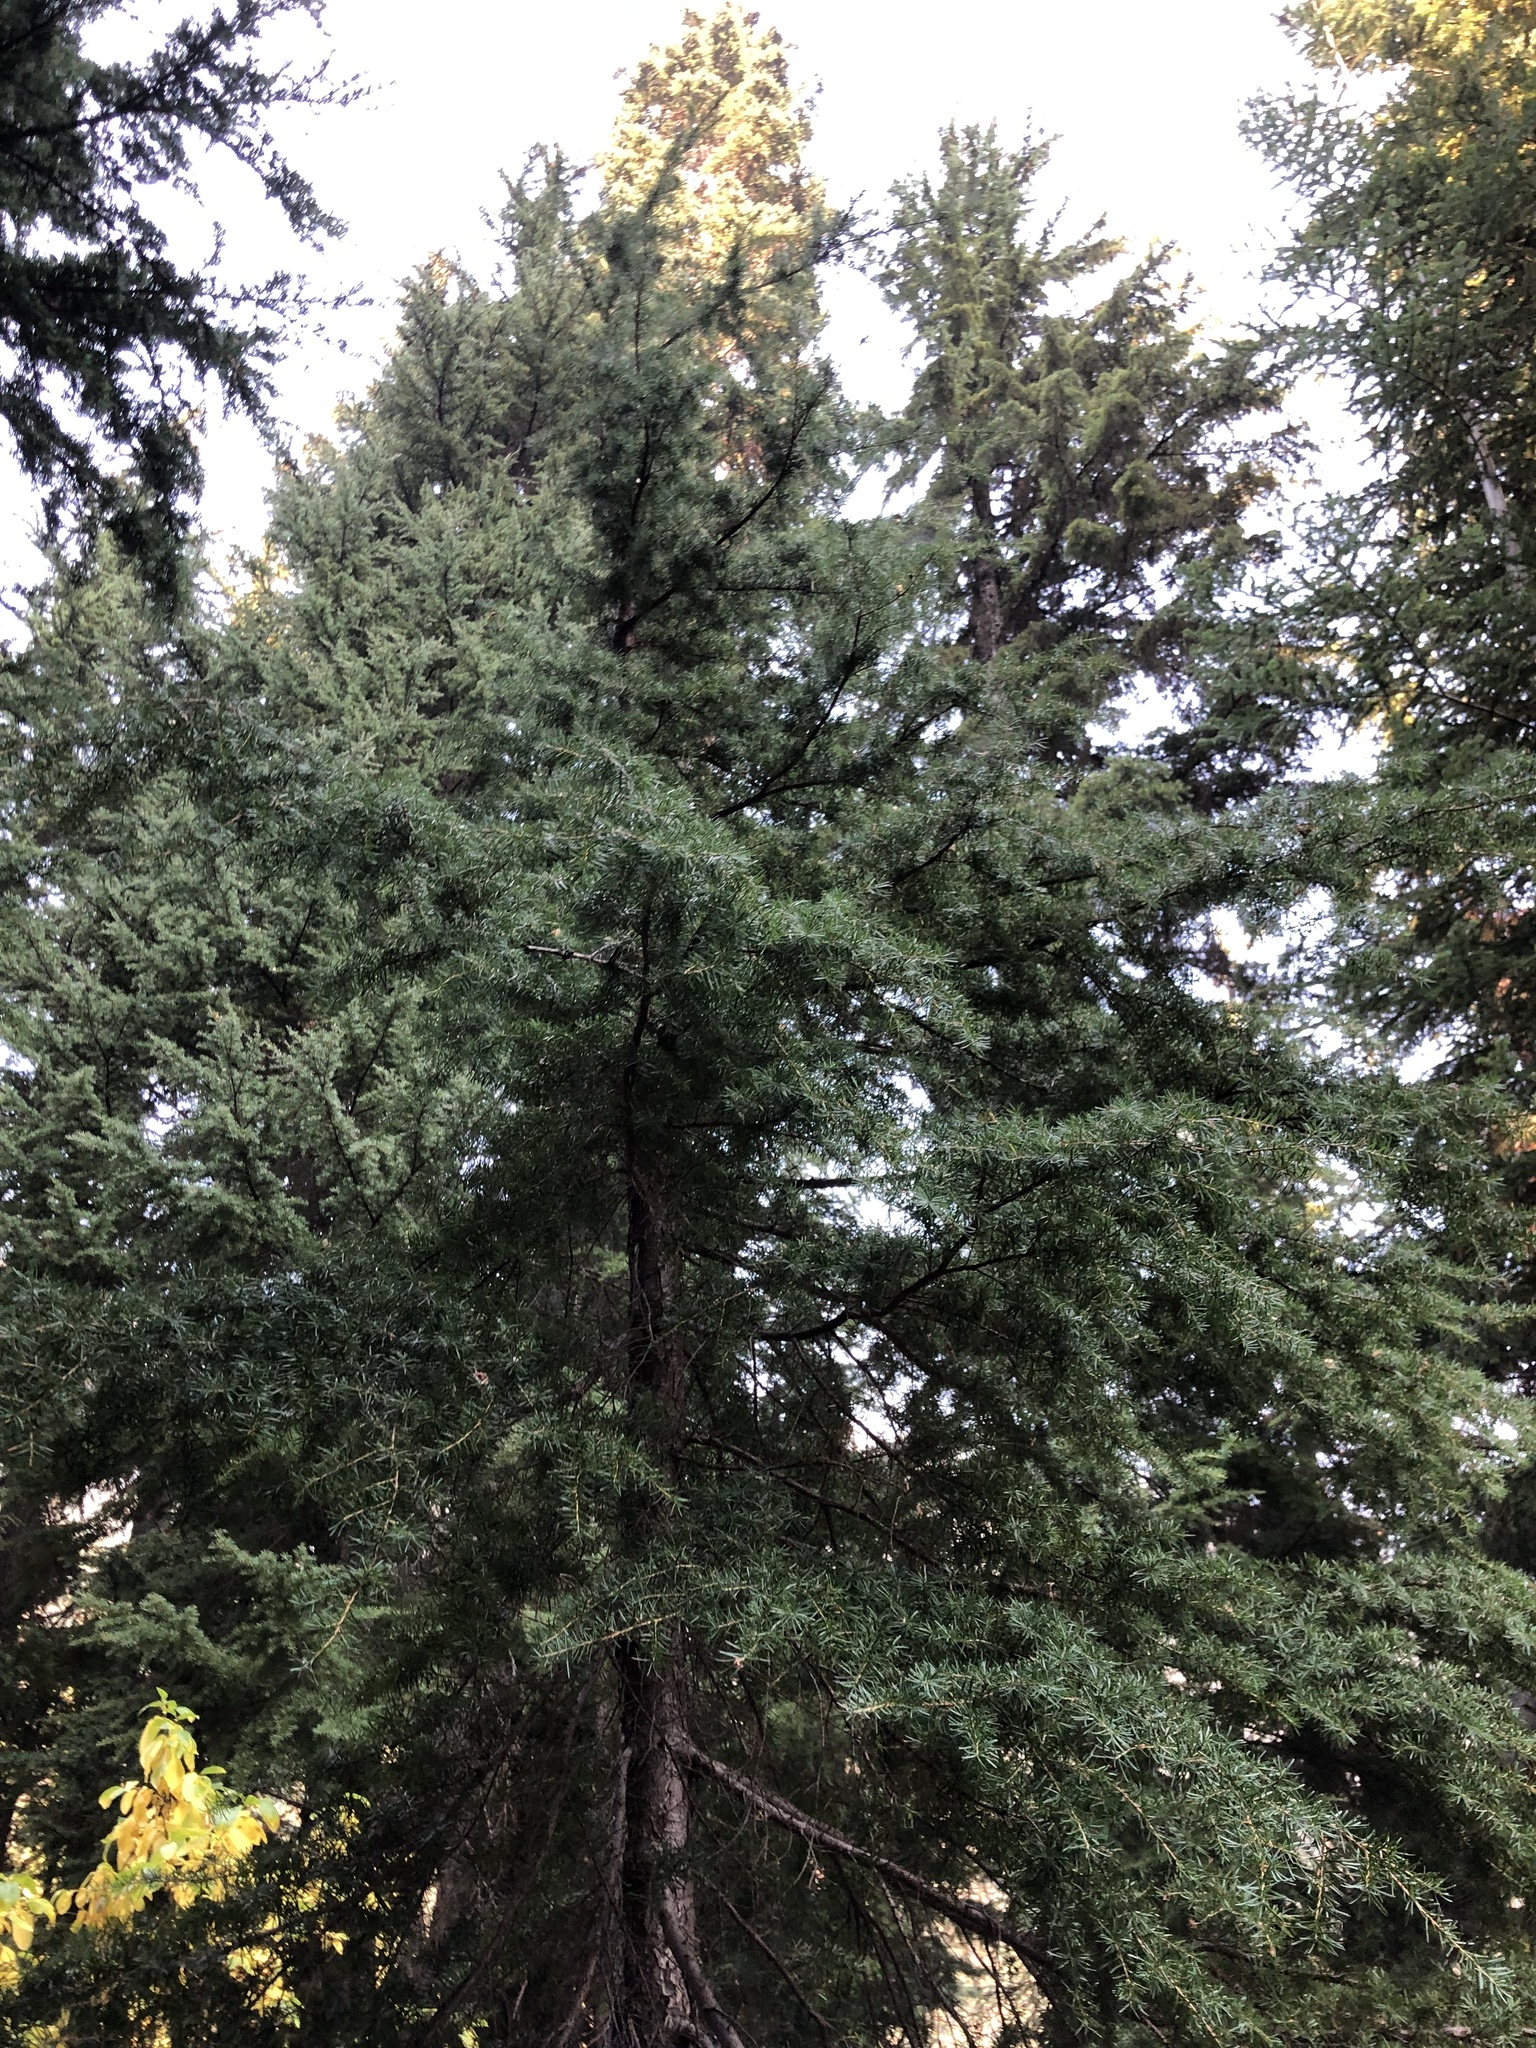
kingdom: Plantae
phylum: Tracheophyta
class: Pinopsida
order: Pinales
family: Pinaceae
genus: Tsuga
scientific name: Tsuga mertensiana
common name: Mountain hemlock
